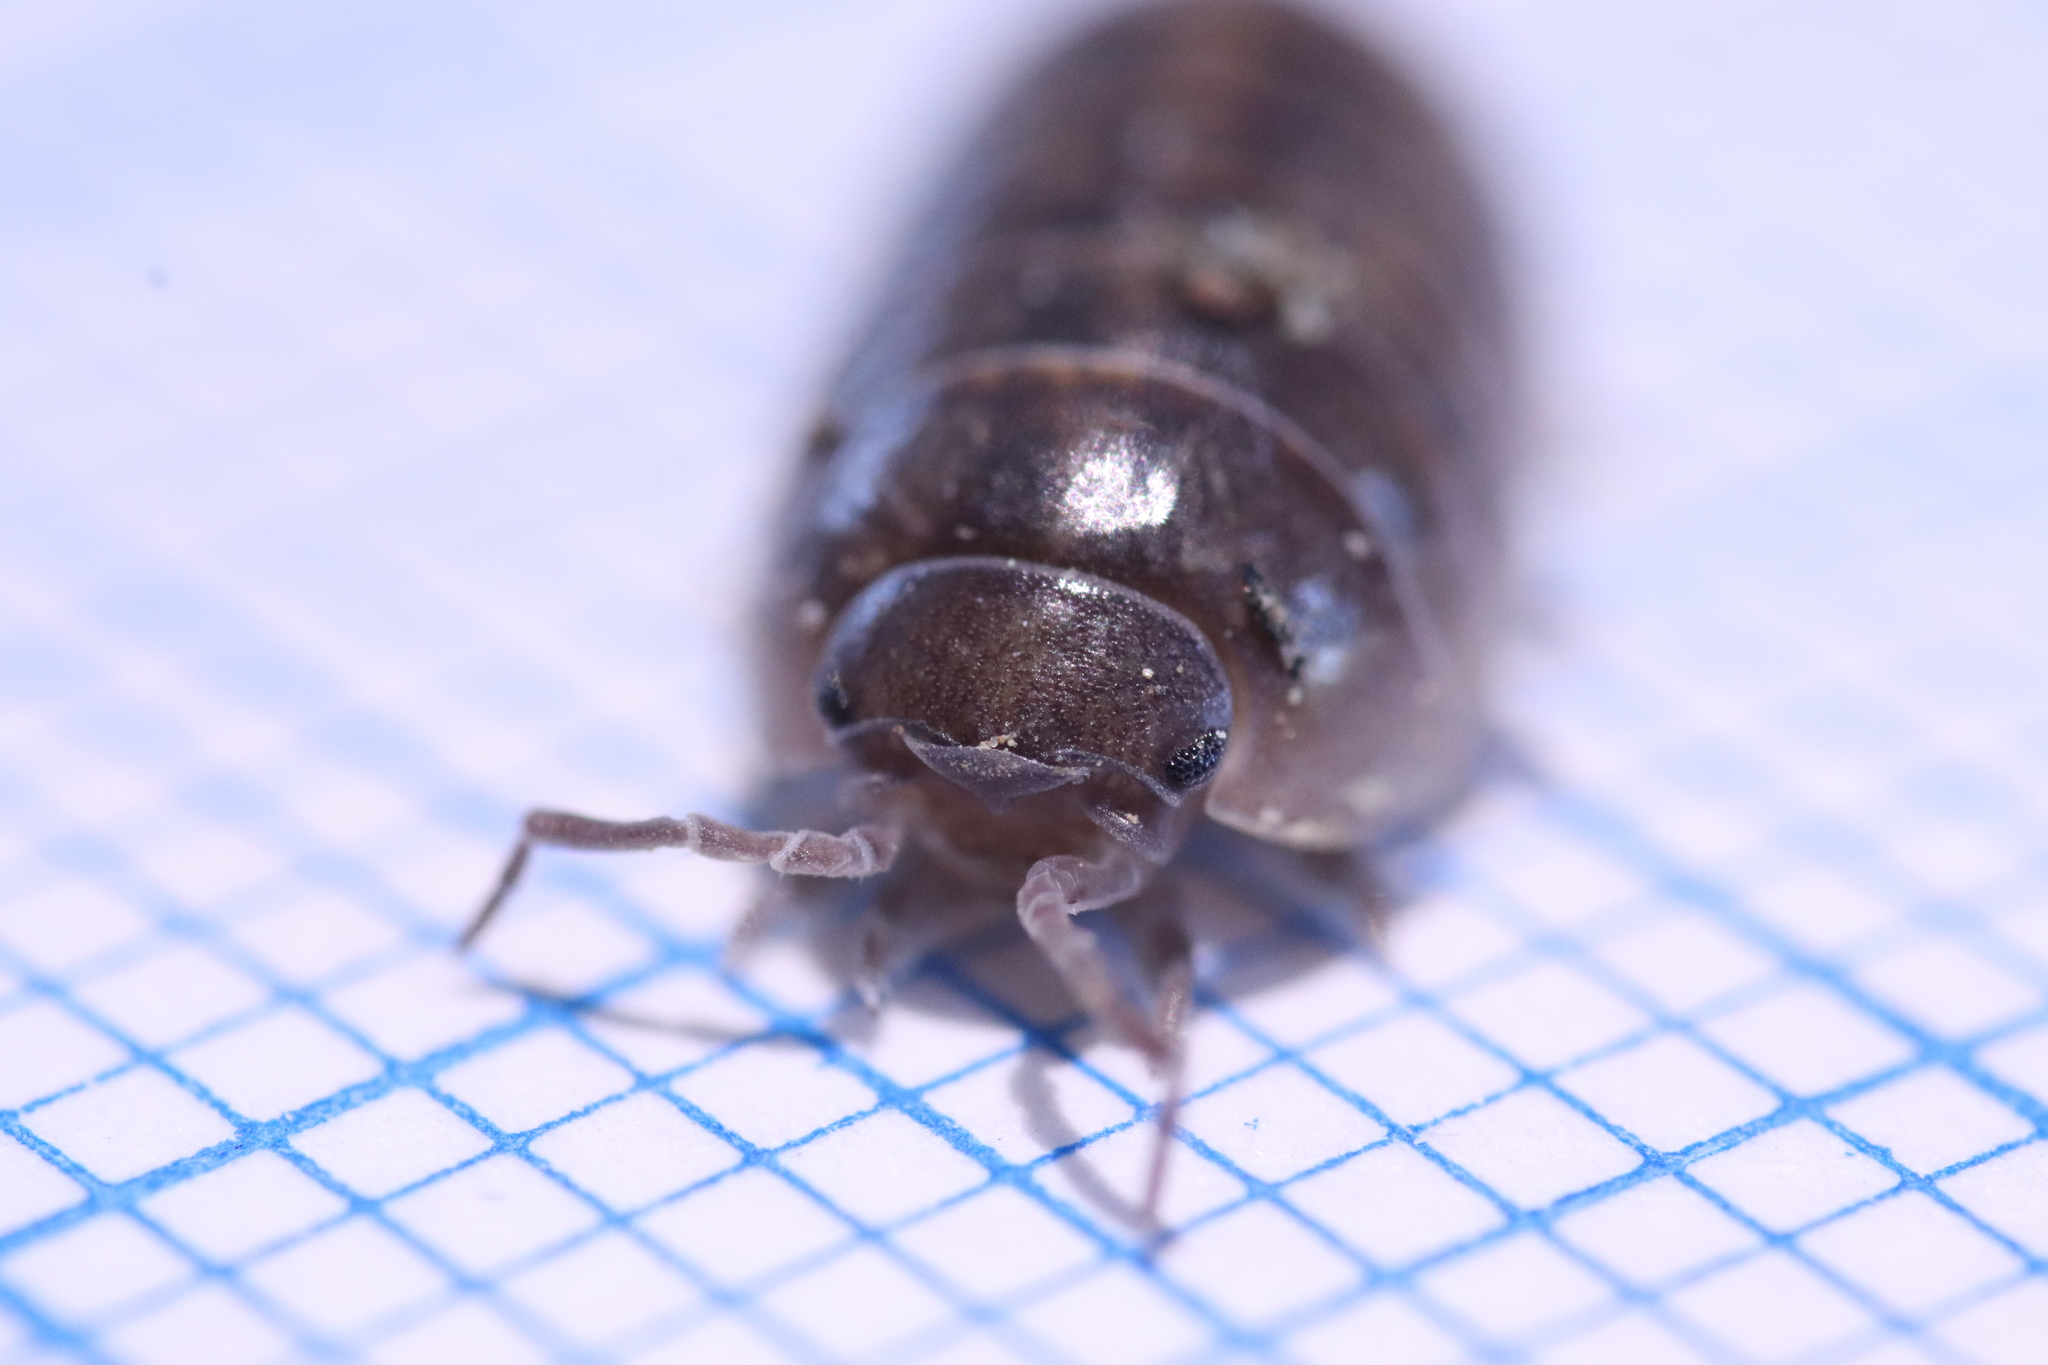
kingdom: Animalia
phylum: Arthropoda
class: Malacostraca
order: Isopoda
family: Armadillidiidae
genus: Armadillidium
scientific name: Armadillidium vulgare
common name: Common pill woodlouse
